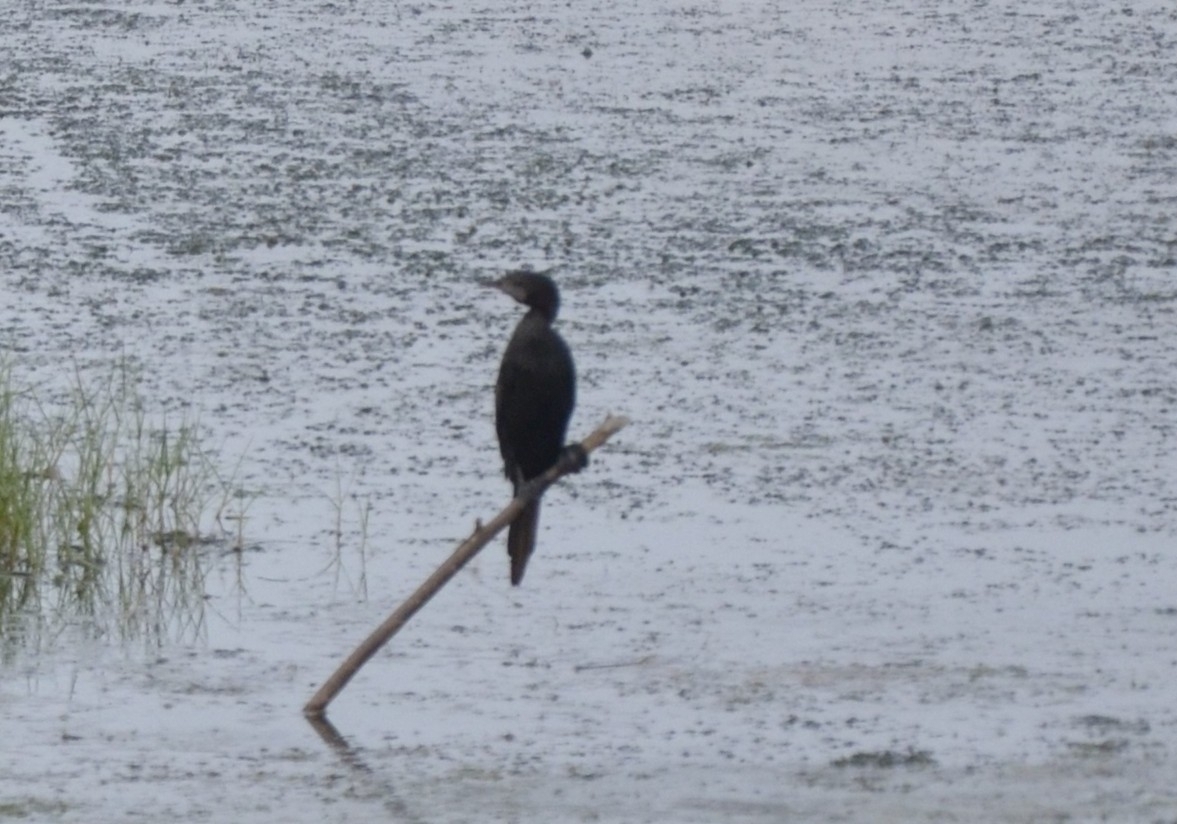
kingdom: Animalia
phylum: Chordata
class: Aves
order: Suliformes
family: Phalacrocoracidae
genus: Microcarbo
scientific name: Microcarbo niger
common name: Little cormorant
